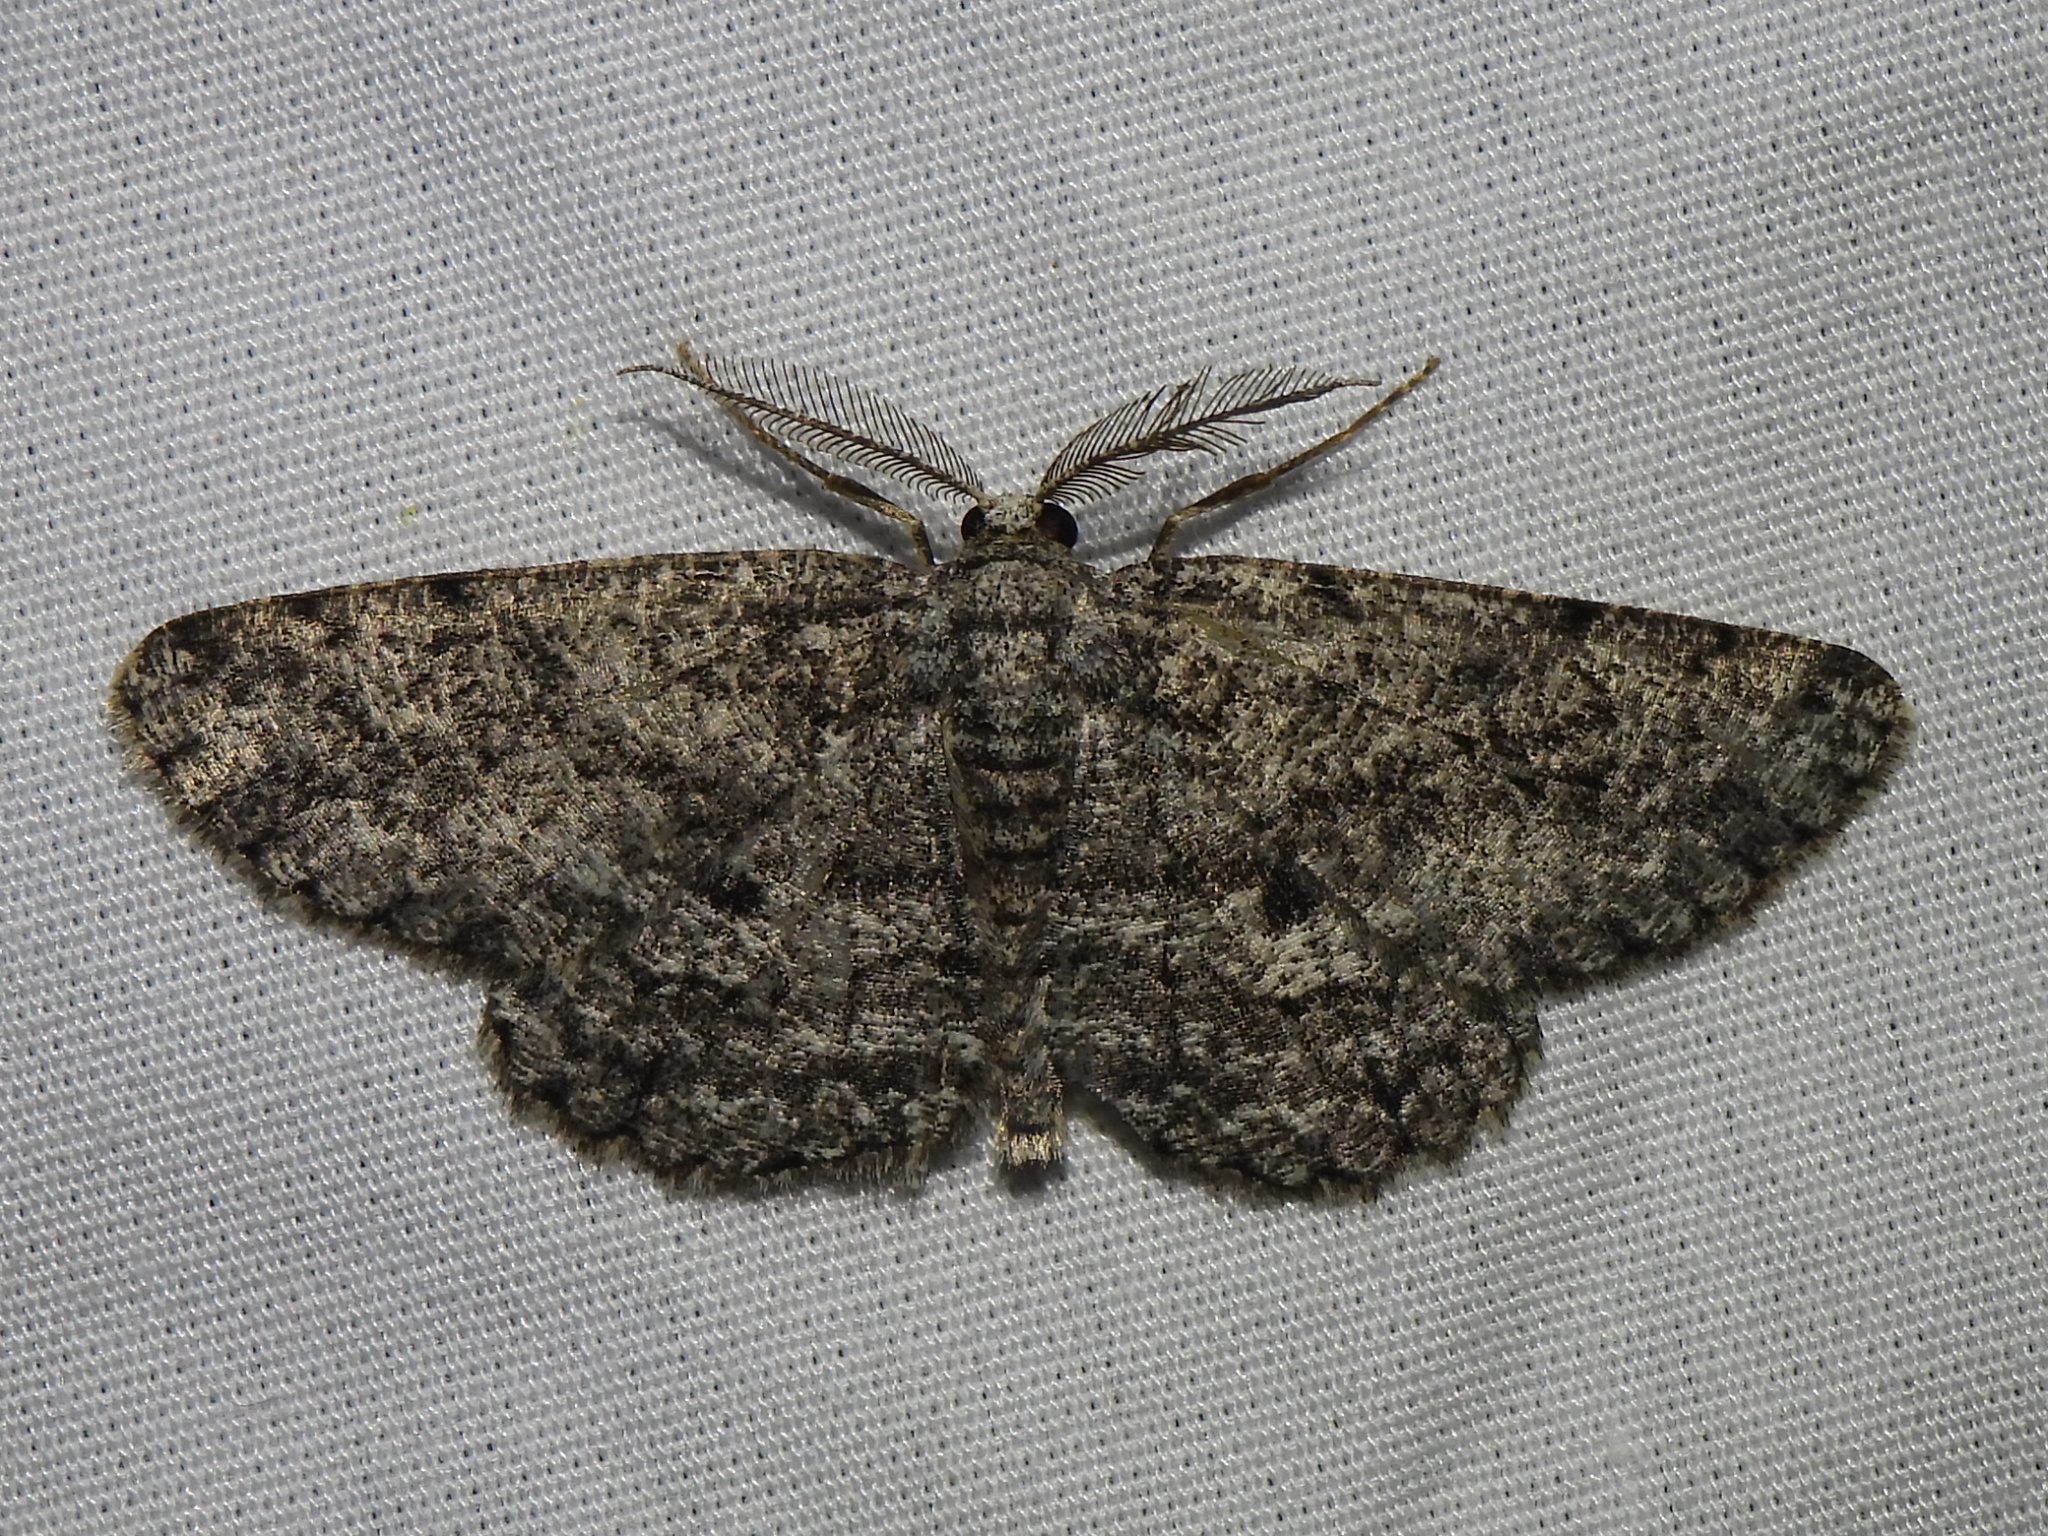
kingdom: Animalia
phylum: Arthropoda
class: Insecta
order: Lepidoptera
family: Geometridae
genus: Hypomecis
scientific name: Hypomecis umbrosaria
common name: Umber moth
